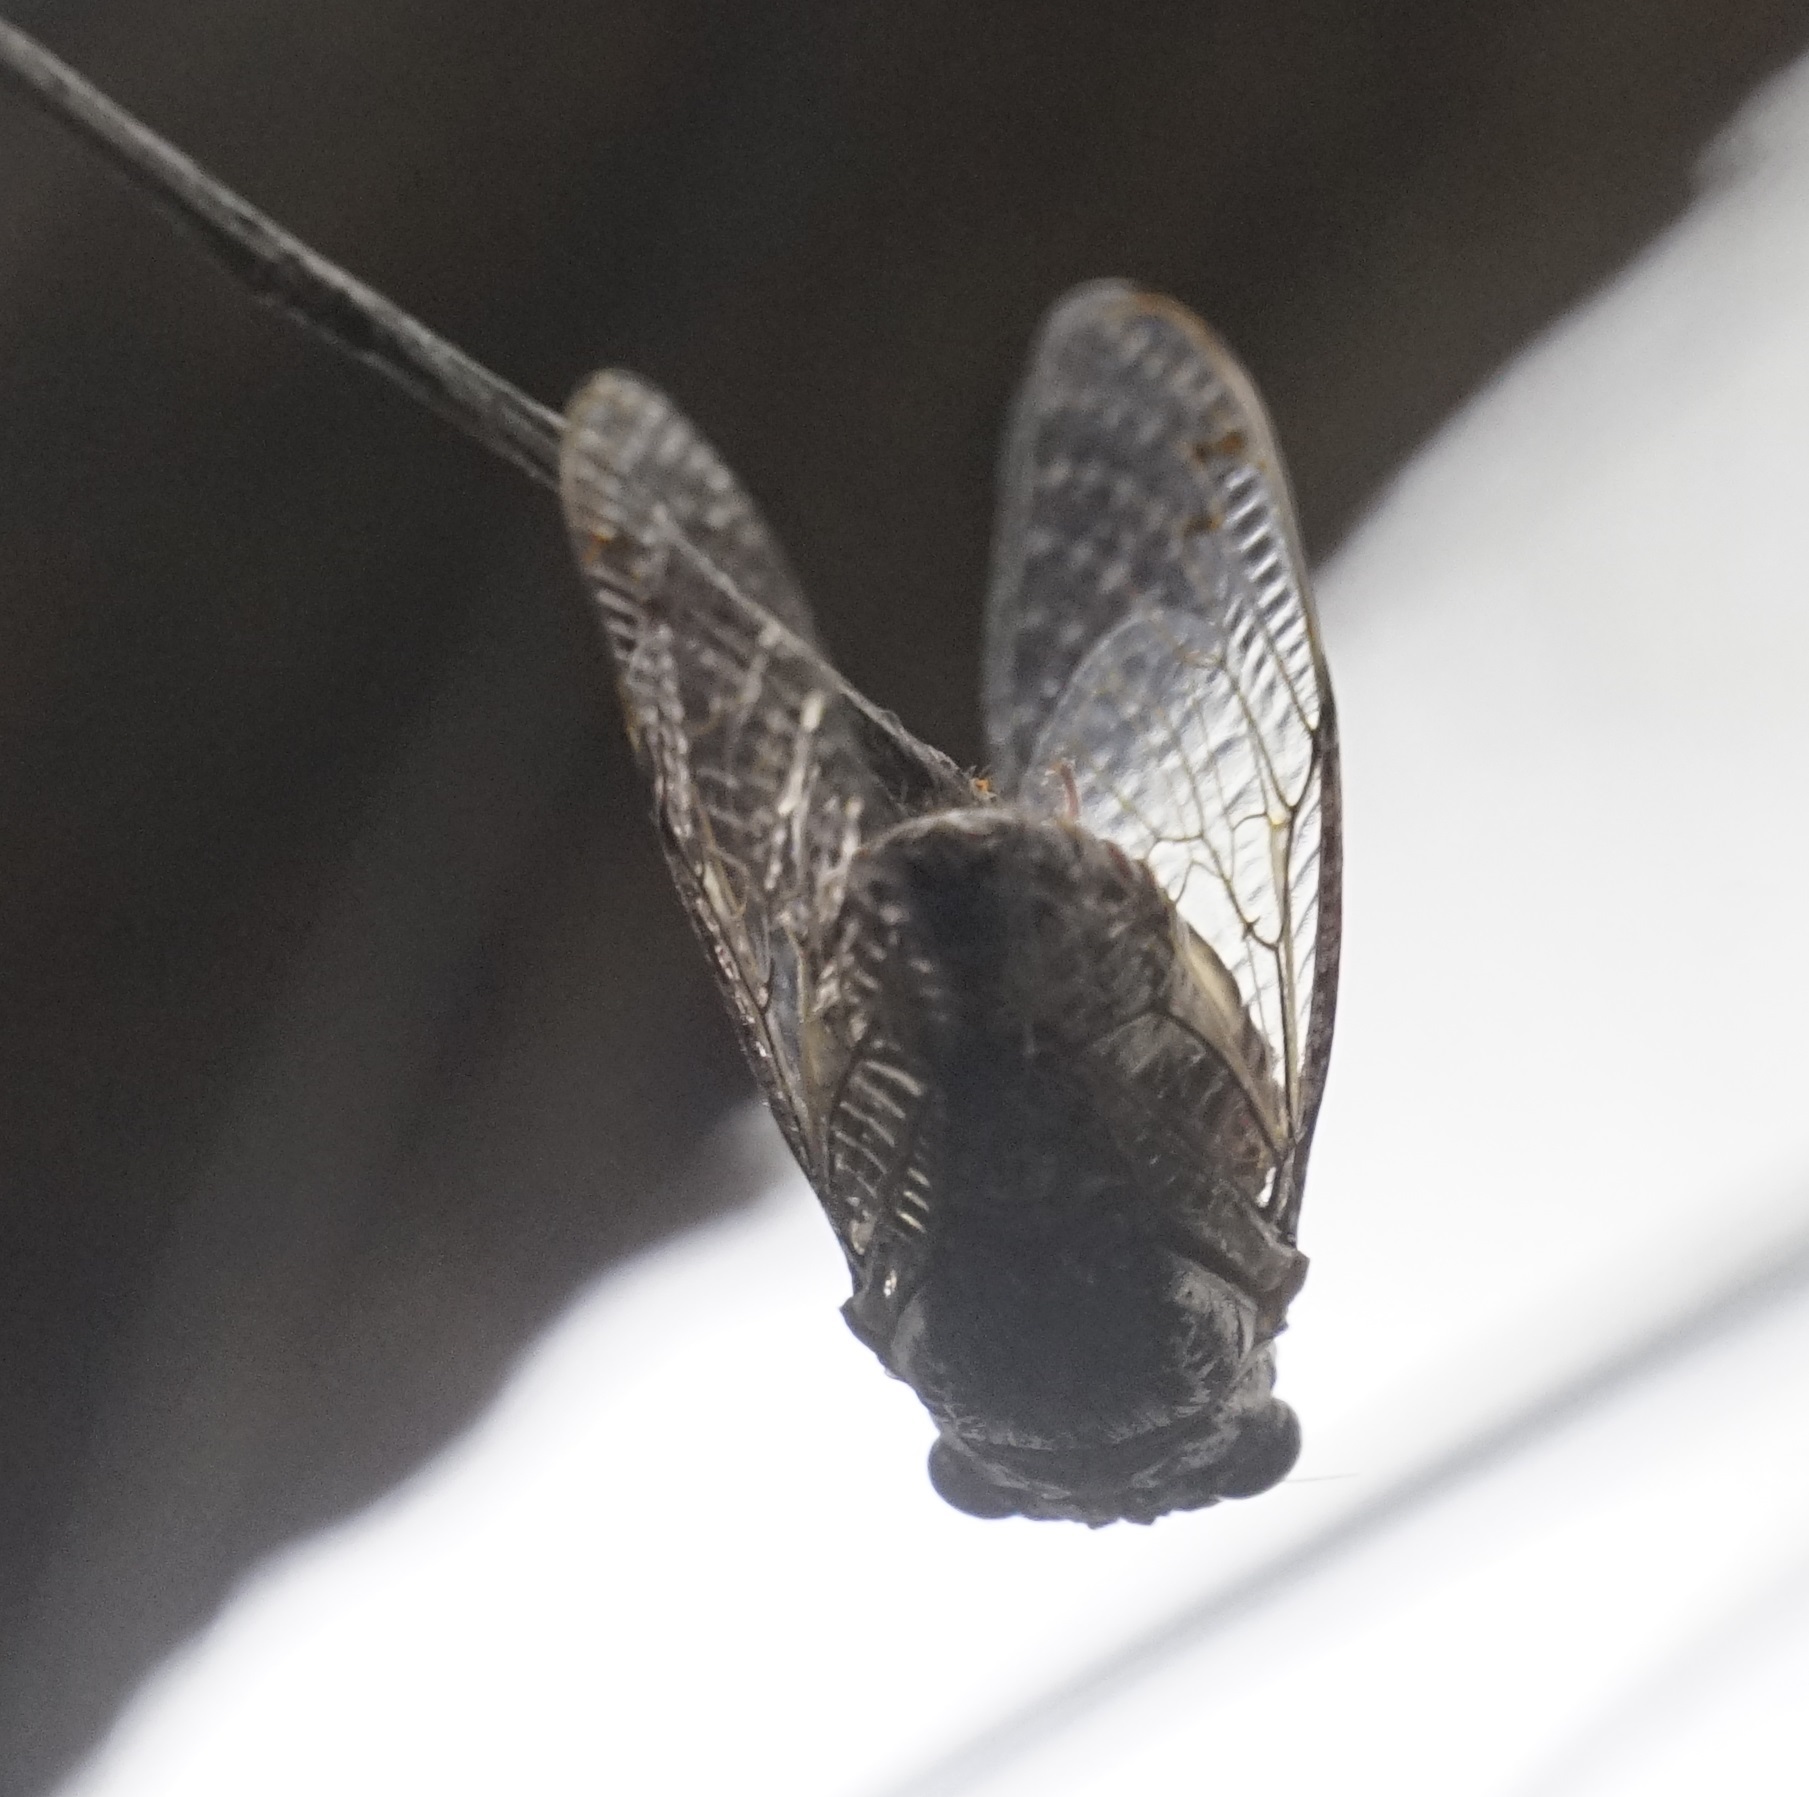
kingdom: Animalia
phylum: Arthropoda
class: Insecta
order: Hemiptera
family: Cicadidae
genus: Aleeta
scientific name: Aleeta curvicosta
